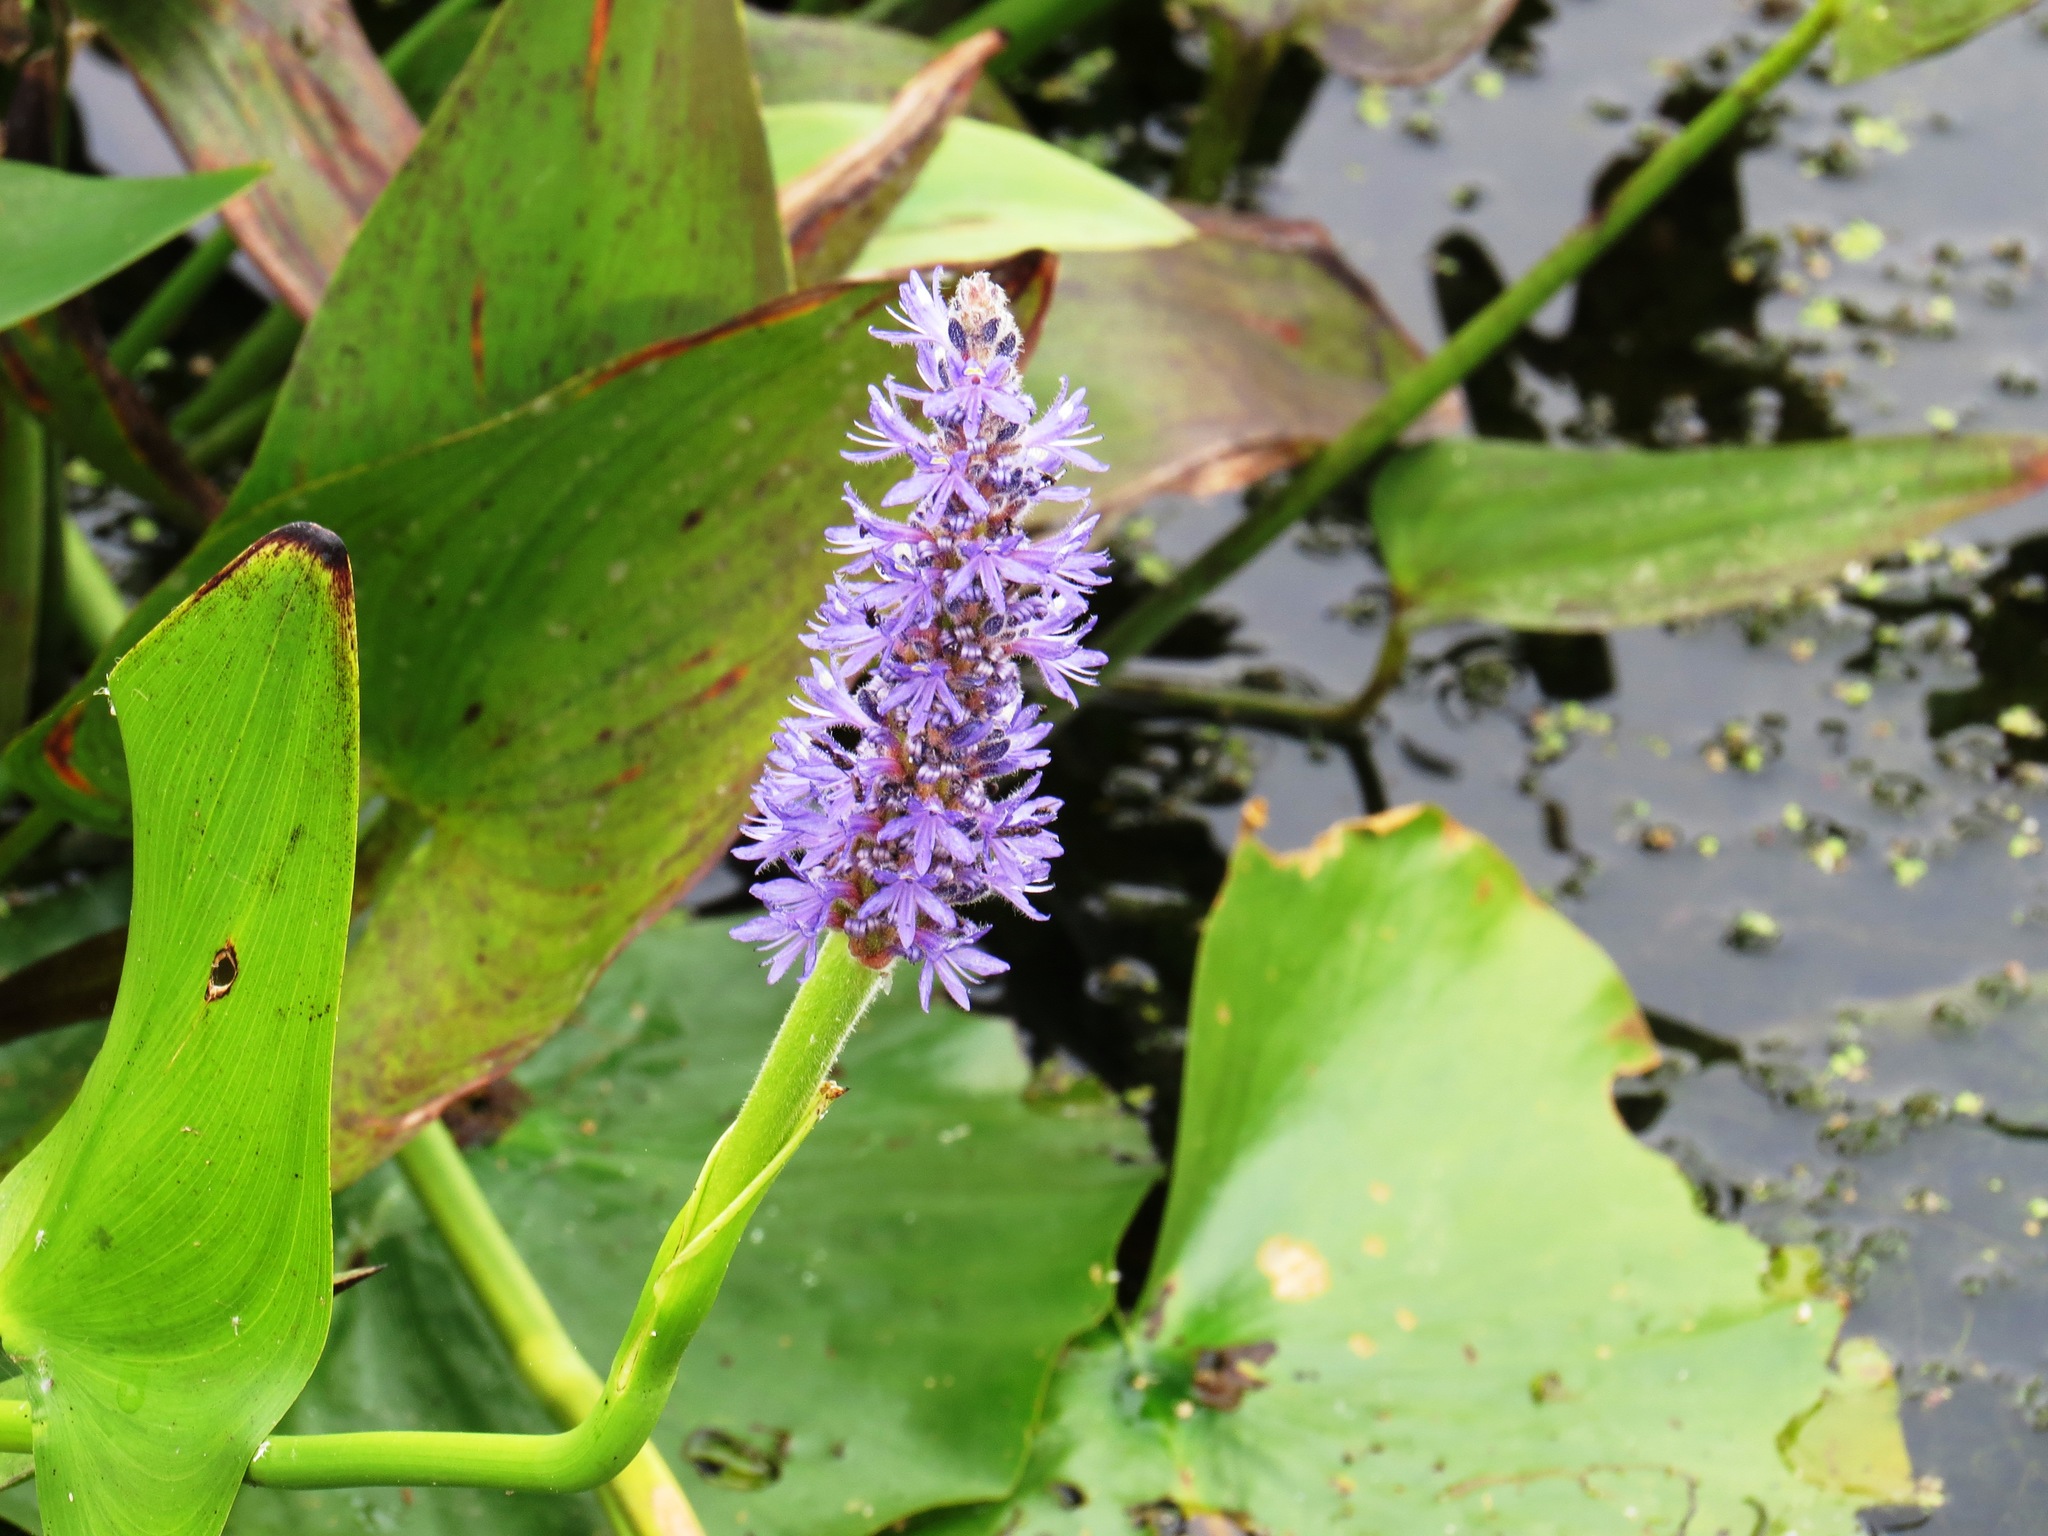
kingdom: Plantae
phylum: Tracheophyta
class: Liliopsida
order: Commelinales
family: Pontederiaceae
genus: Pontederia
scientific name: Pontederia cordata
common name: Pickerelweed
